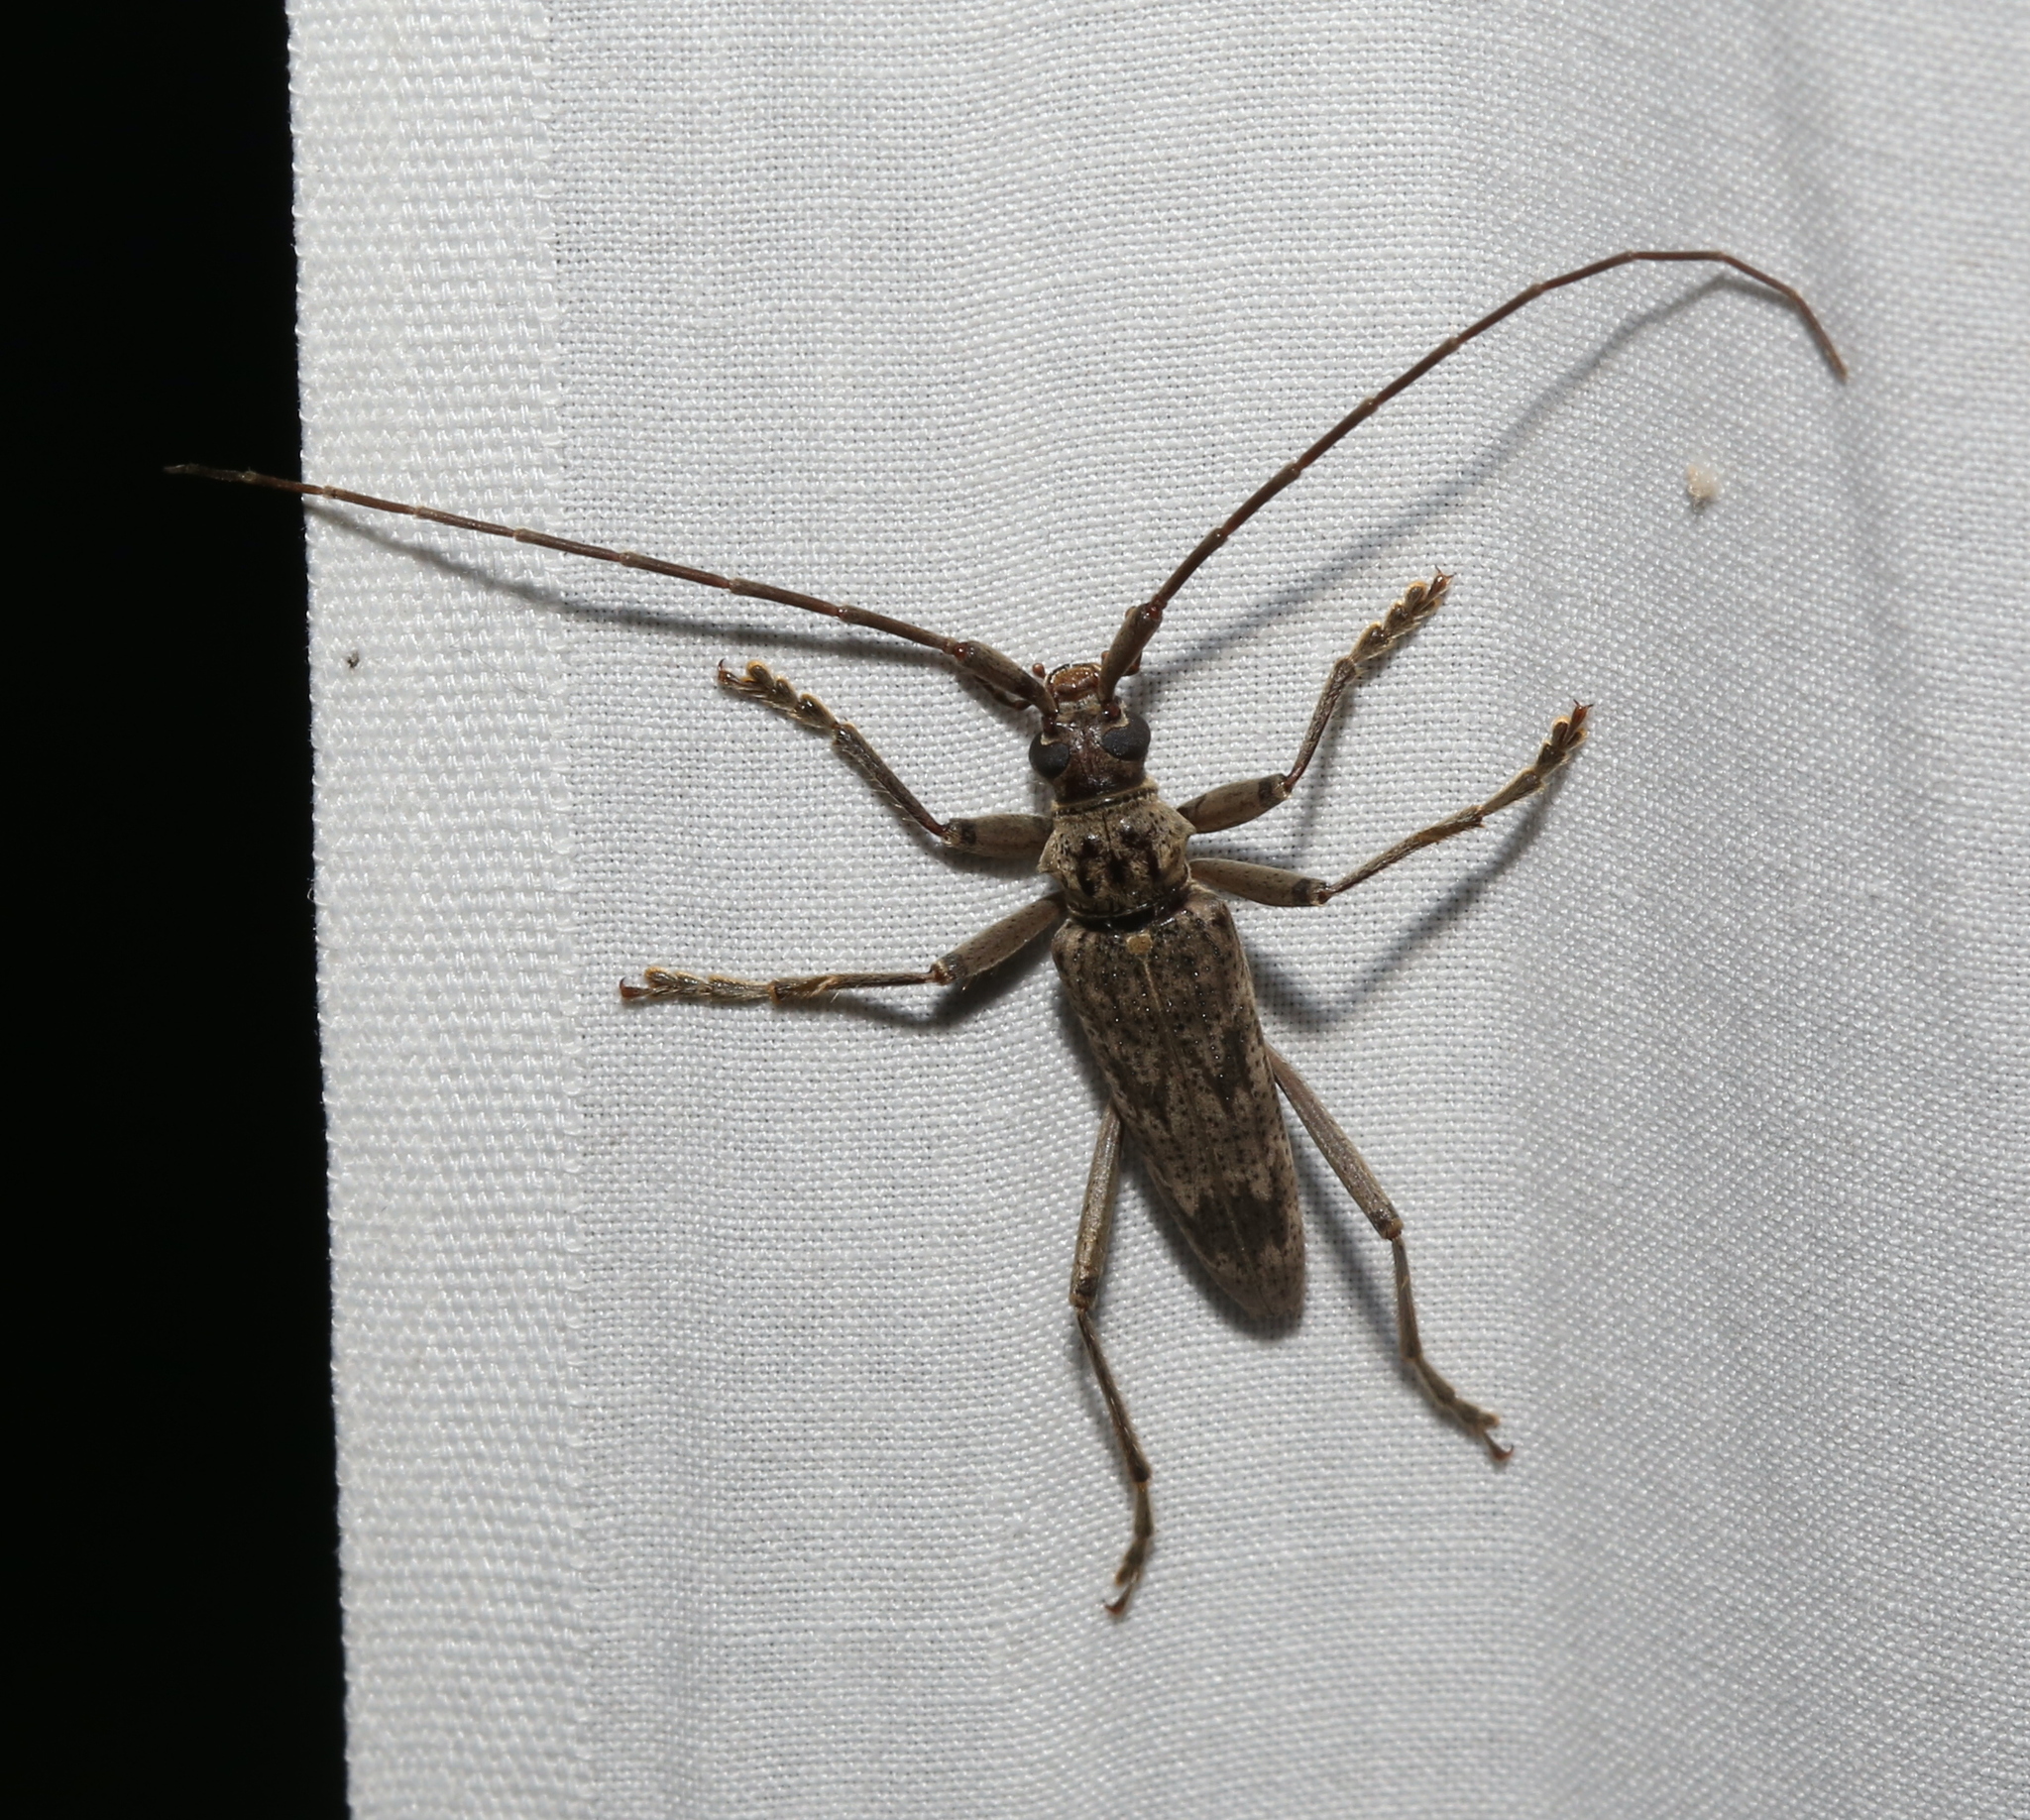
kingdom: Animalia
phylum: Arthropoda
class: Insecta
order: Coleoptera
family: Cerambycidae
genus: Elytrimitatrix
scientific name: Elytrimitatrix undata
